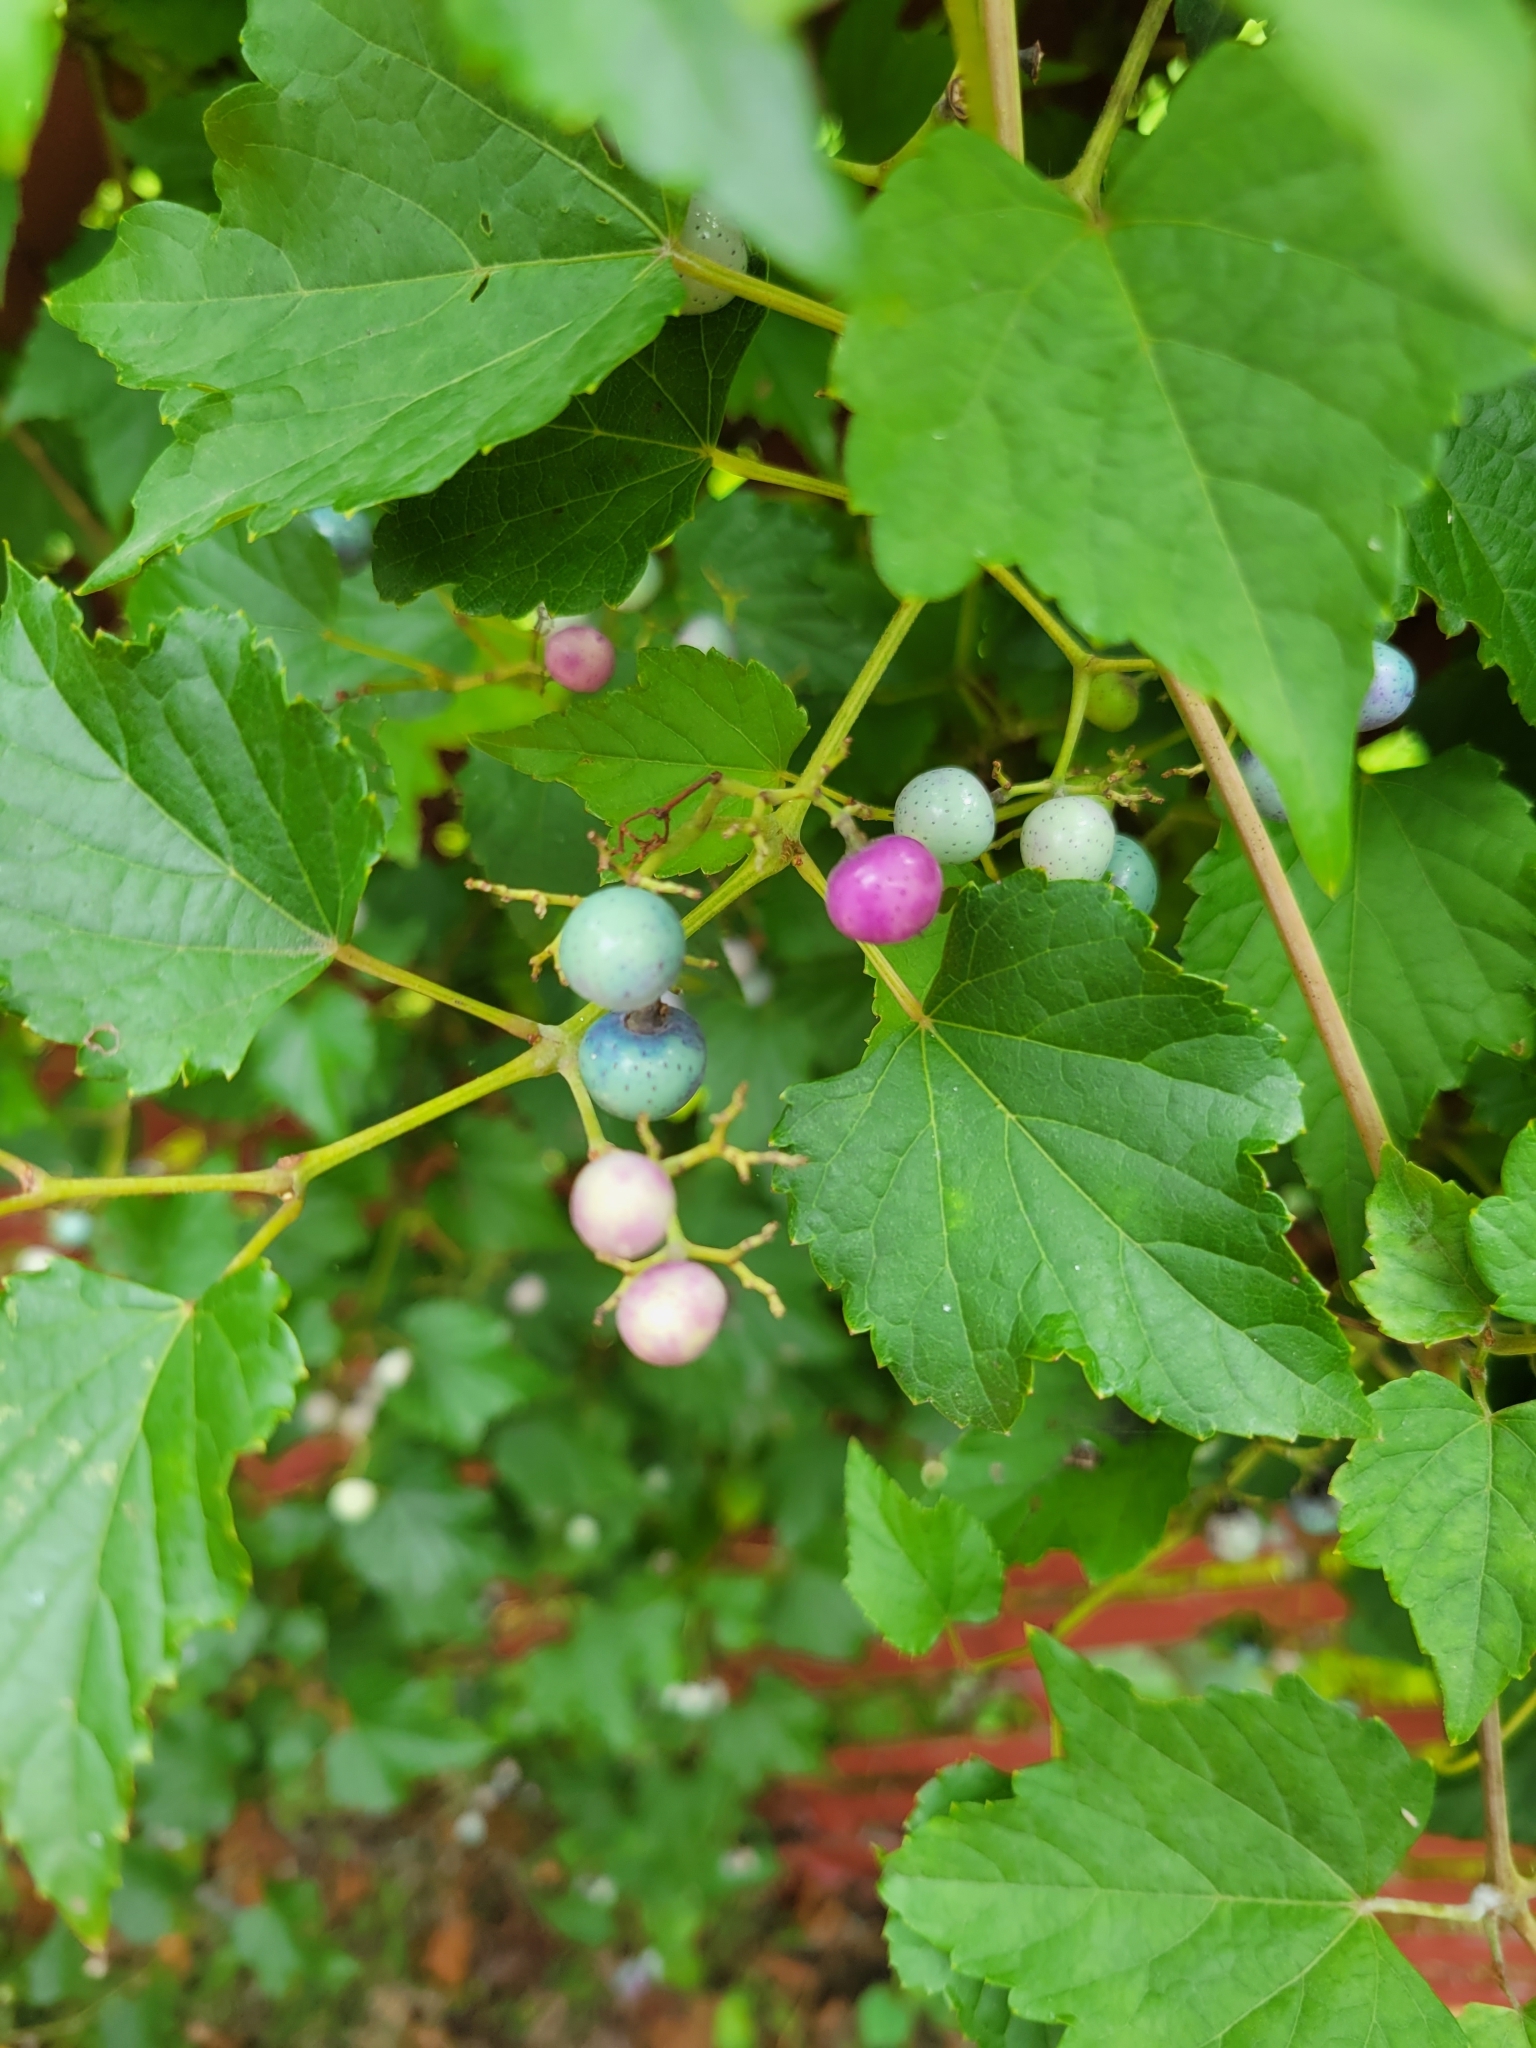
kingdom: Plantae
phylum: Tracheophyta
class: Magnoliopsida
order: Vitales
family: Vitaceae
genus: Ampelopsis
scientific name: Ampelopsis glandulosa
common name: Amur peppervine
